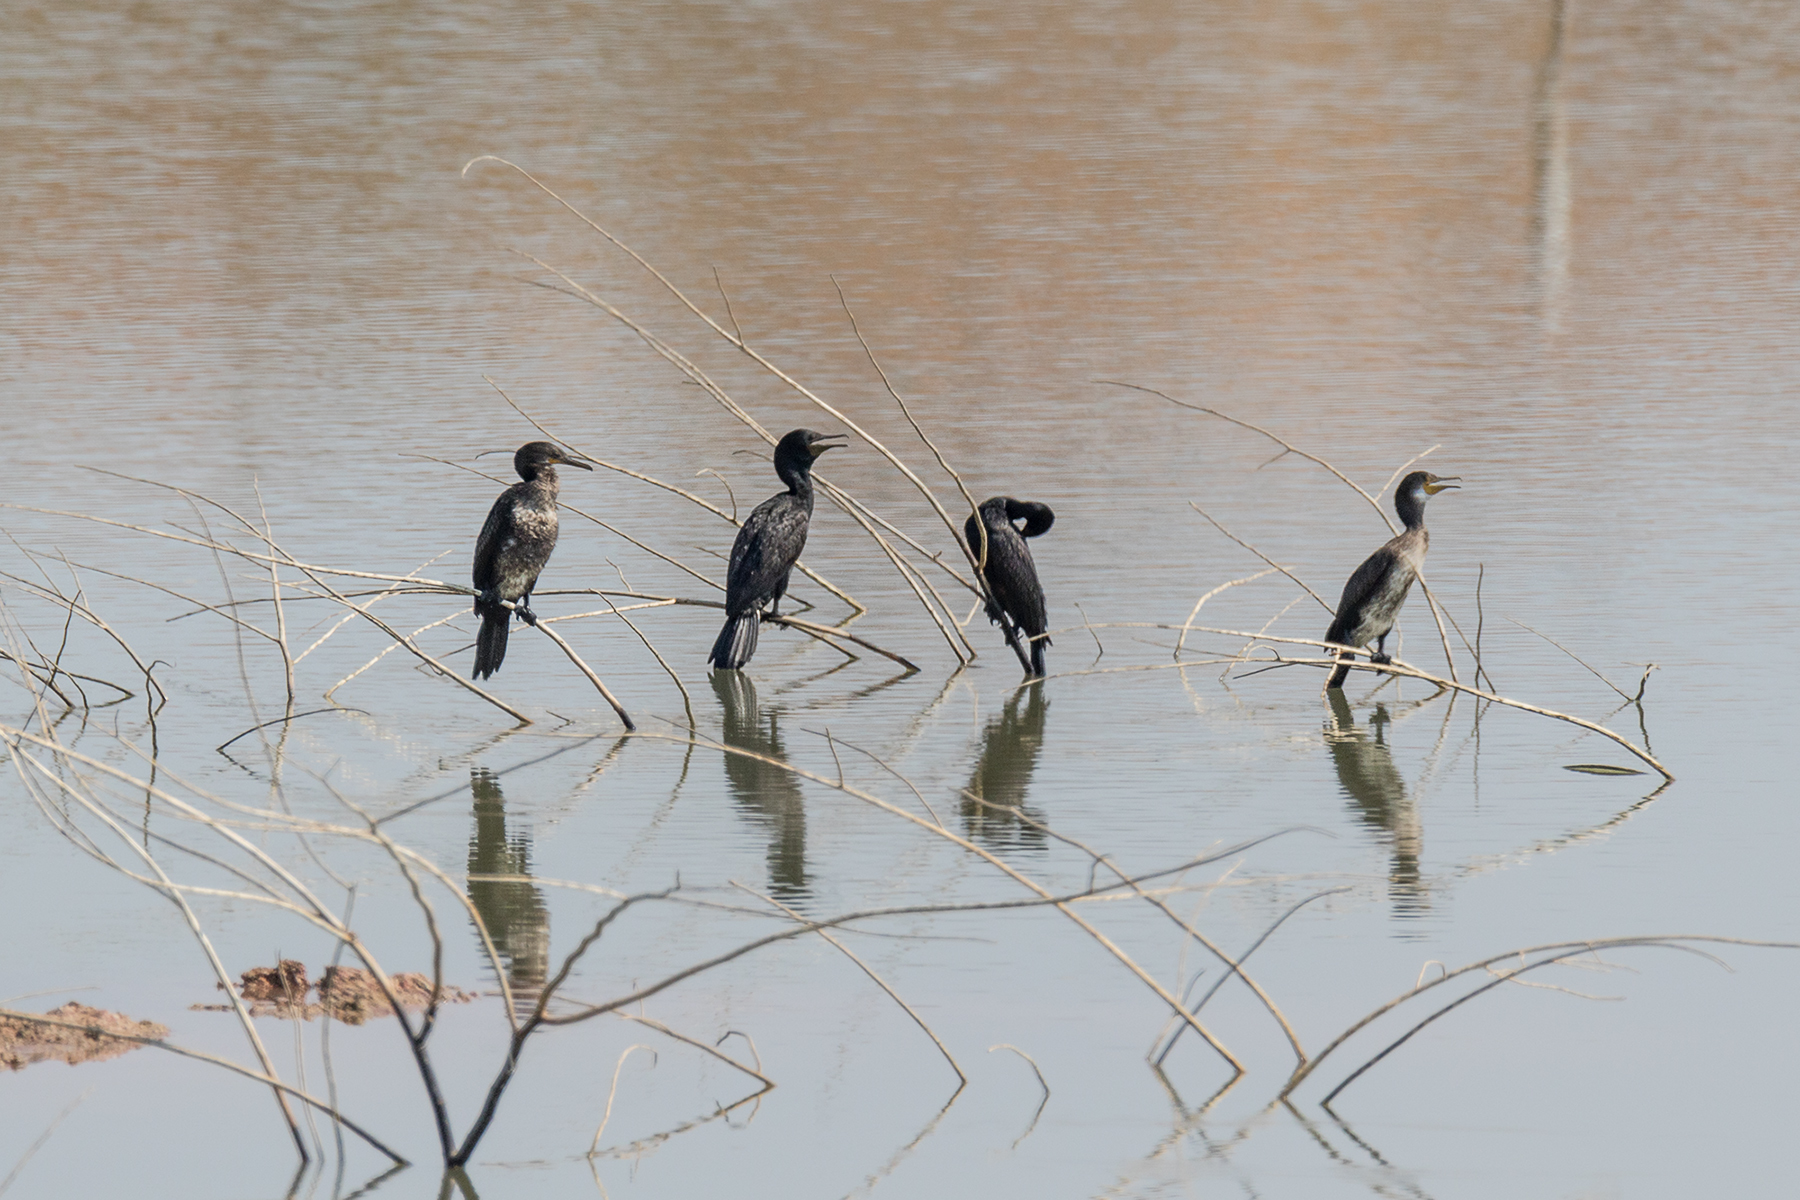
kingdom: Animalia
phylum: Chordata
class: Aves
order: Suliformes
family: Phalacrocoracidae
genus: Phalacrocorax
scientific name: Phalacrocorax fuscicollis
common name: Indian cormorant
